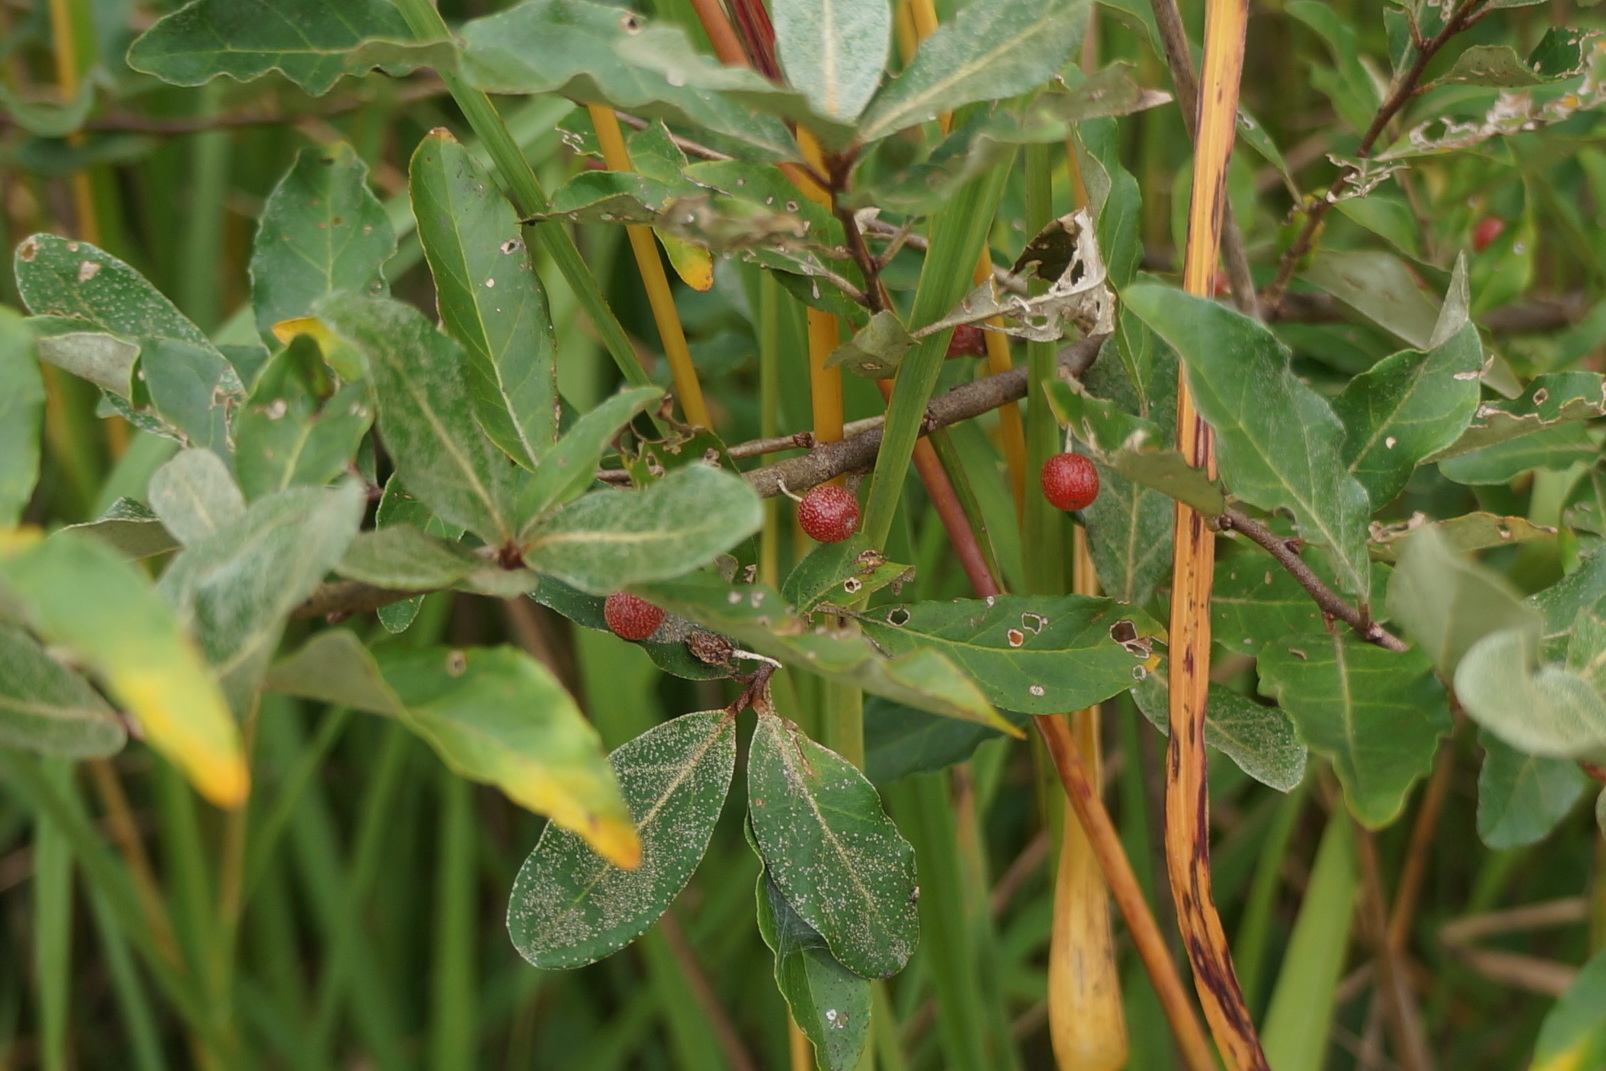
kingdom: Plantae
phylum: Tracheophyta
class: Magnoliopsida
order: Rosales
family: Elaeagnaceae
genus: Elaeagnus
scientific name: Elaeagnus umbellata
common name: Autumn olive
